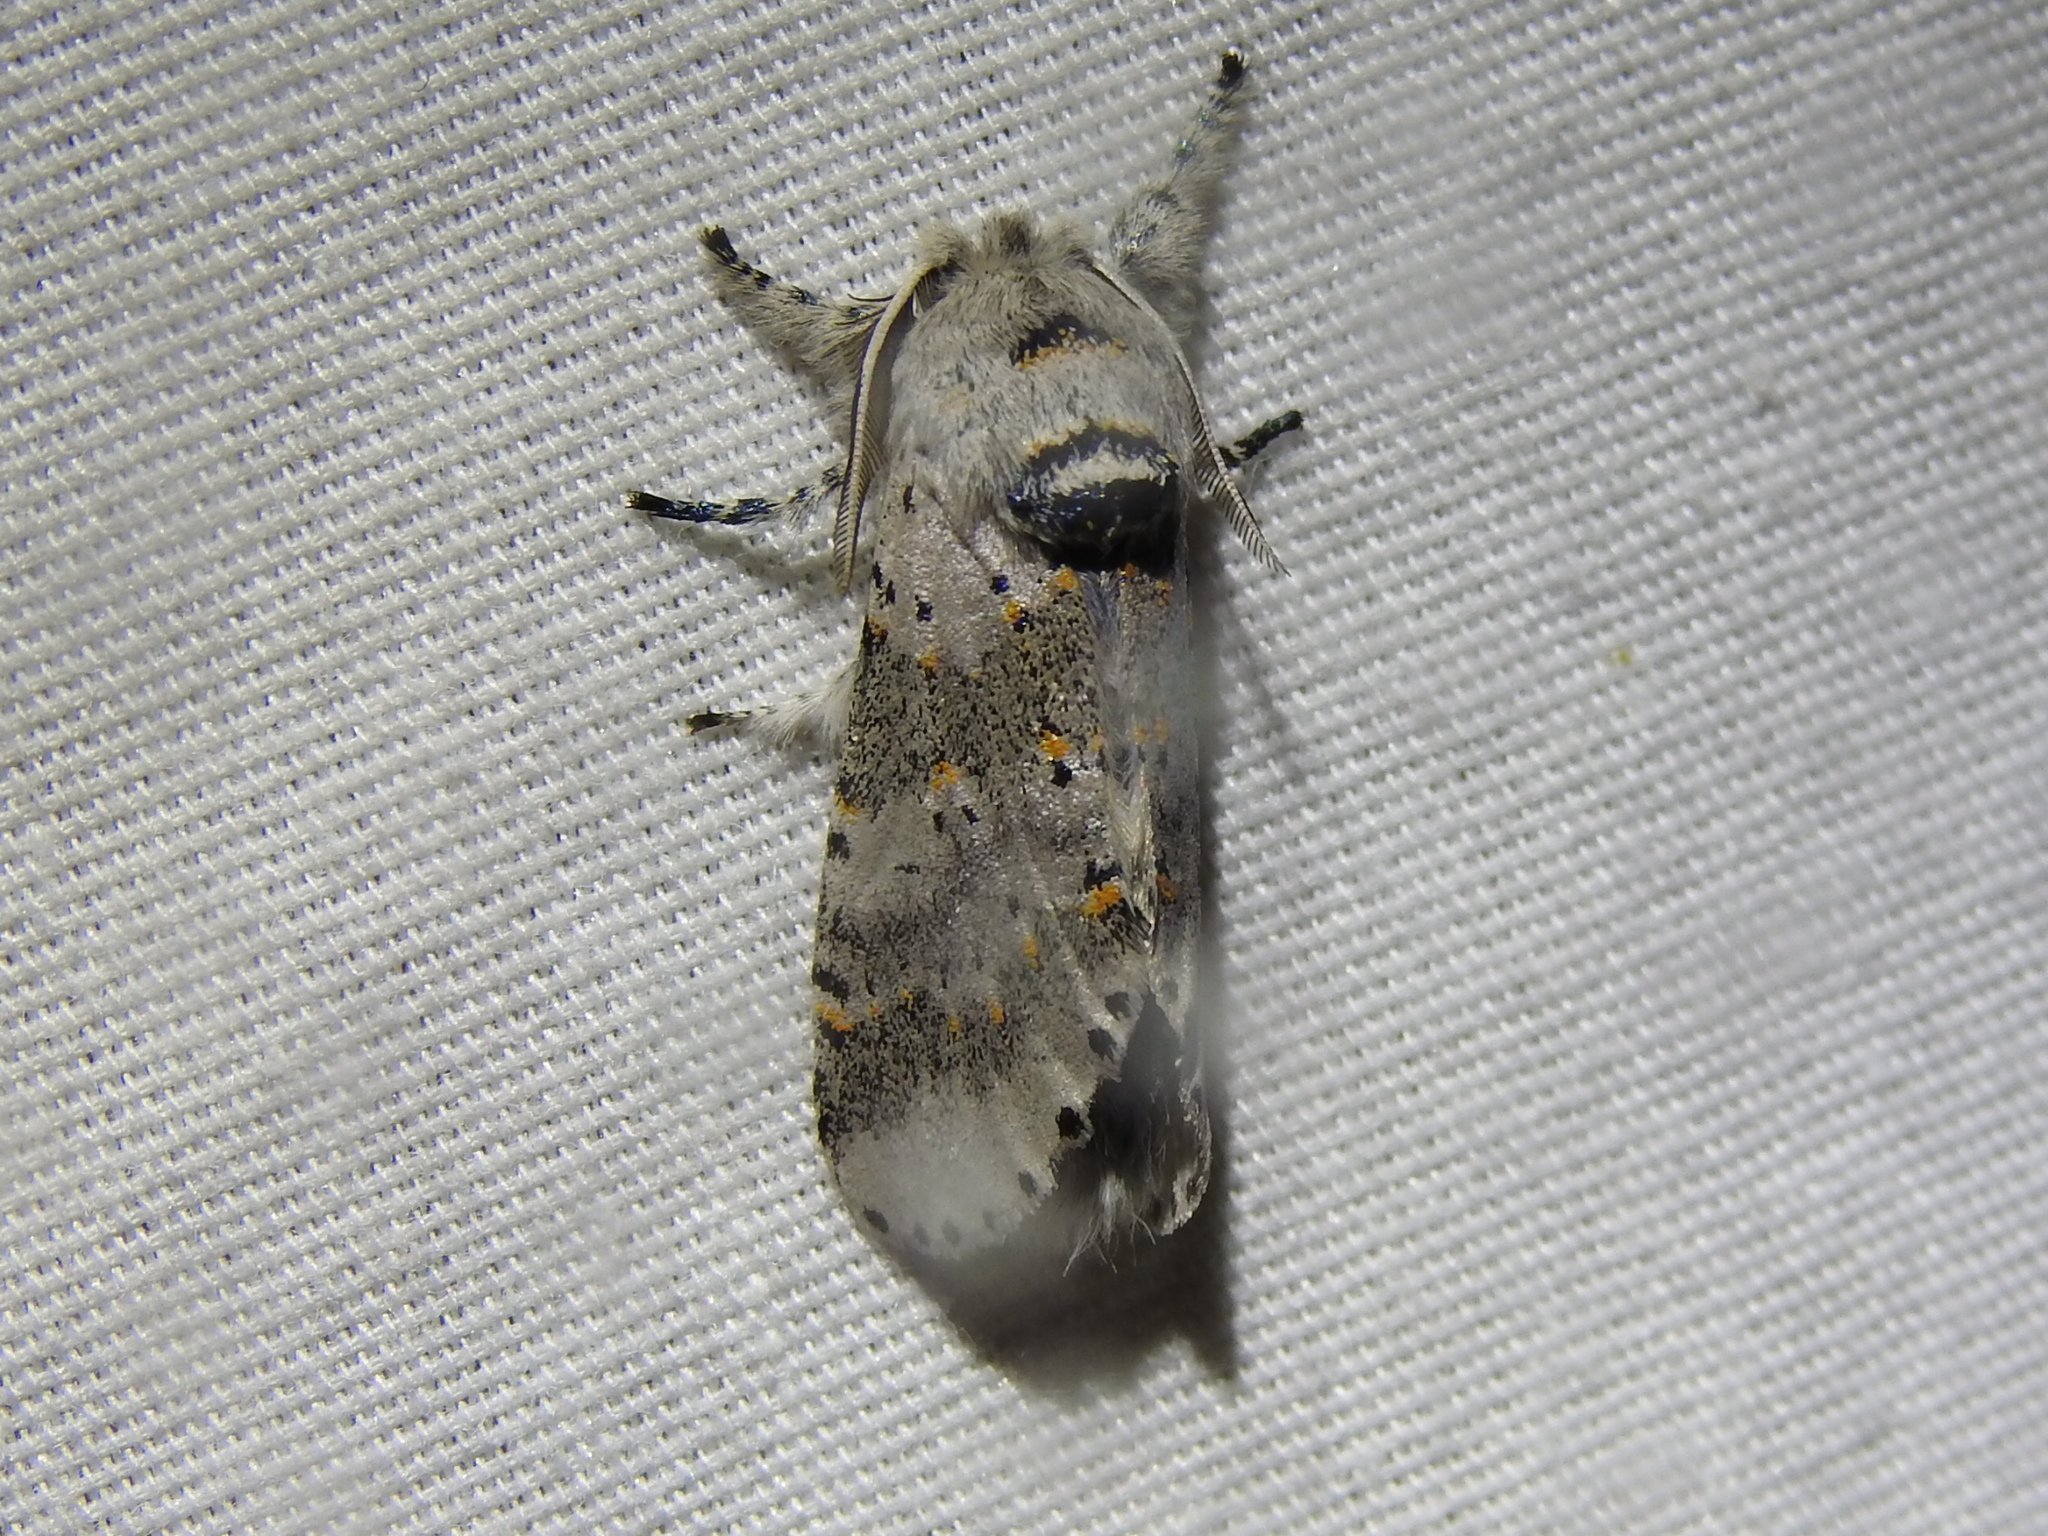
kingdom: Animalia
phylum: Arthropoda
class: Insecta
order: Lepidoptera
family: Notodontidae
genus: Furcula
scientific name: Furcula cinerea
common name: Gray furcula
